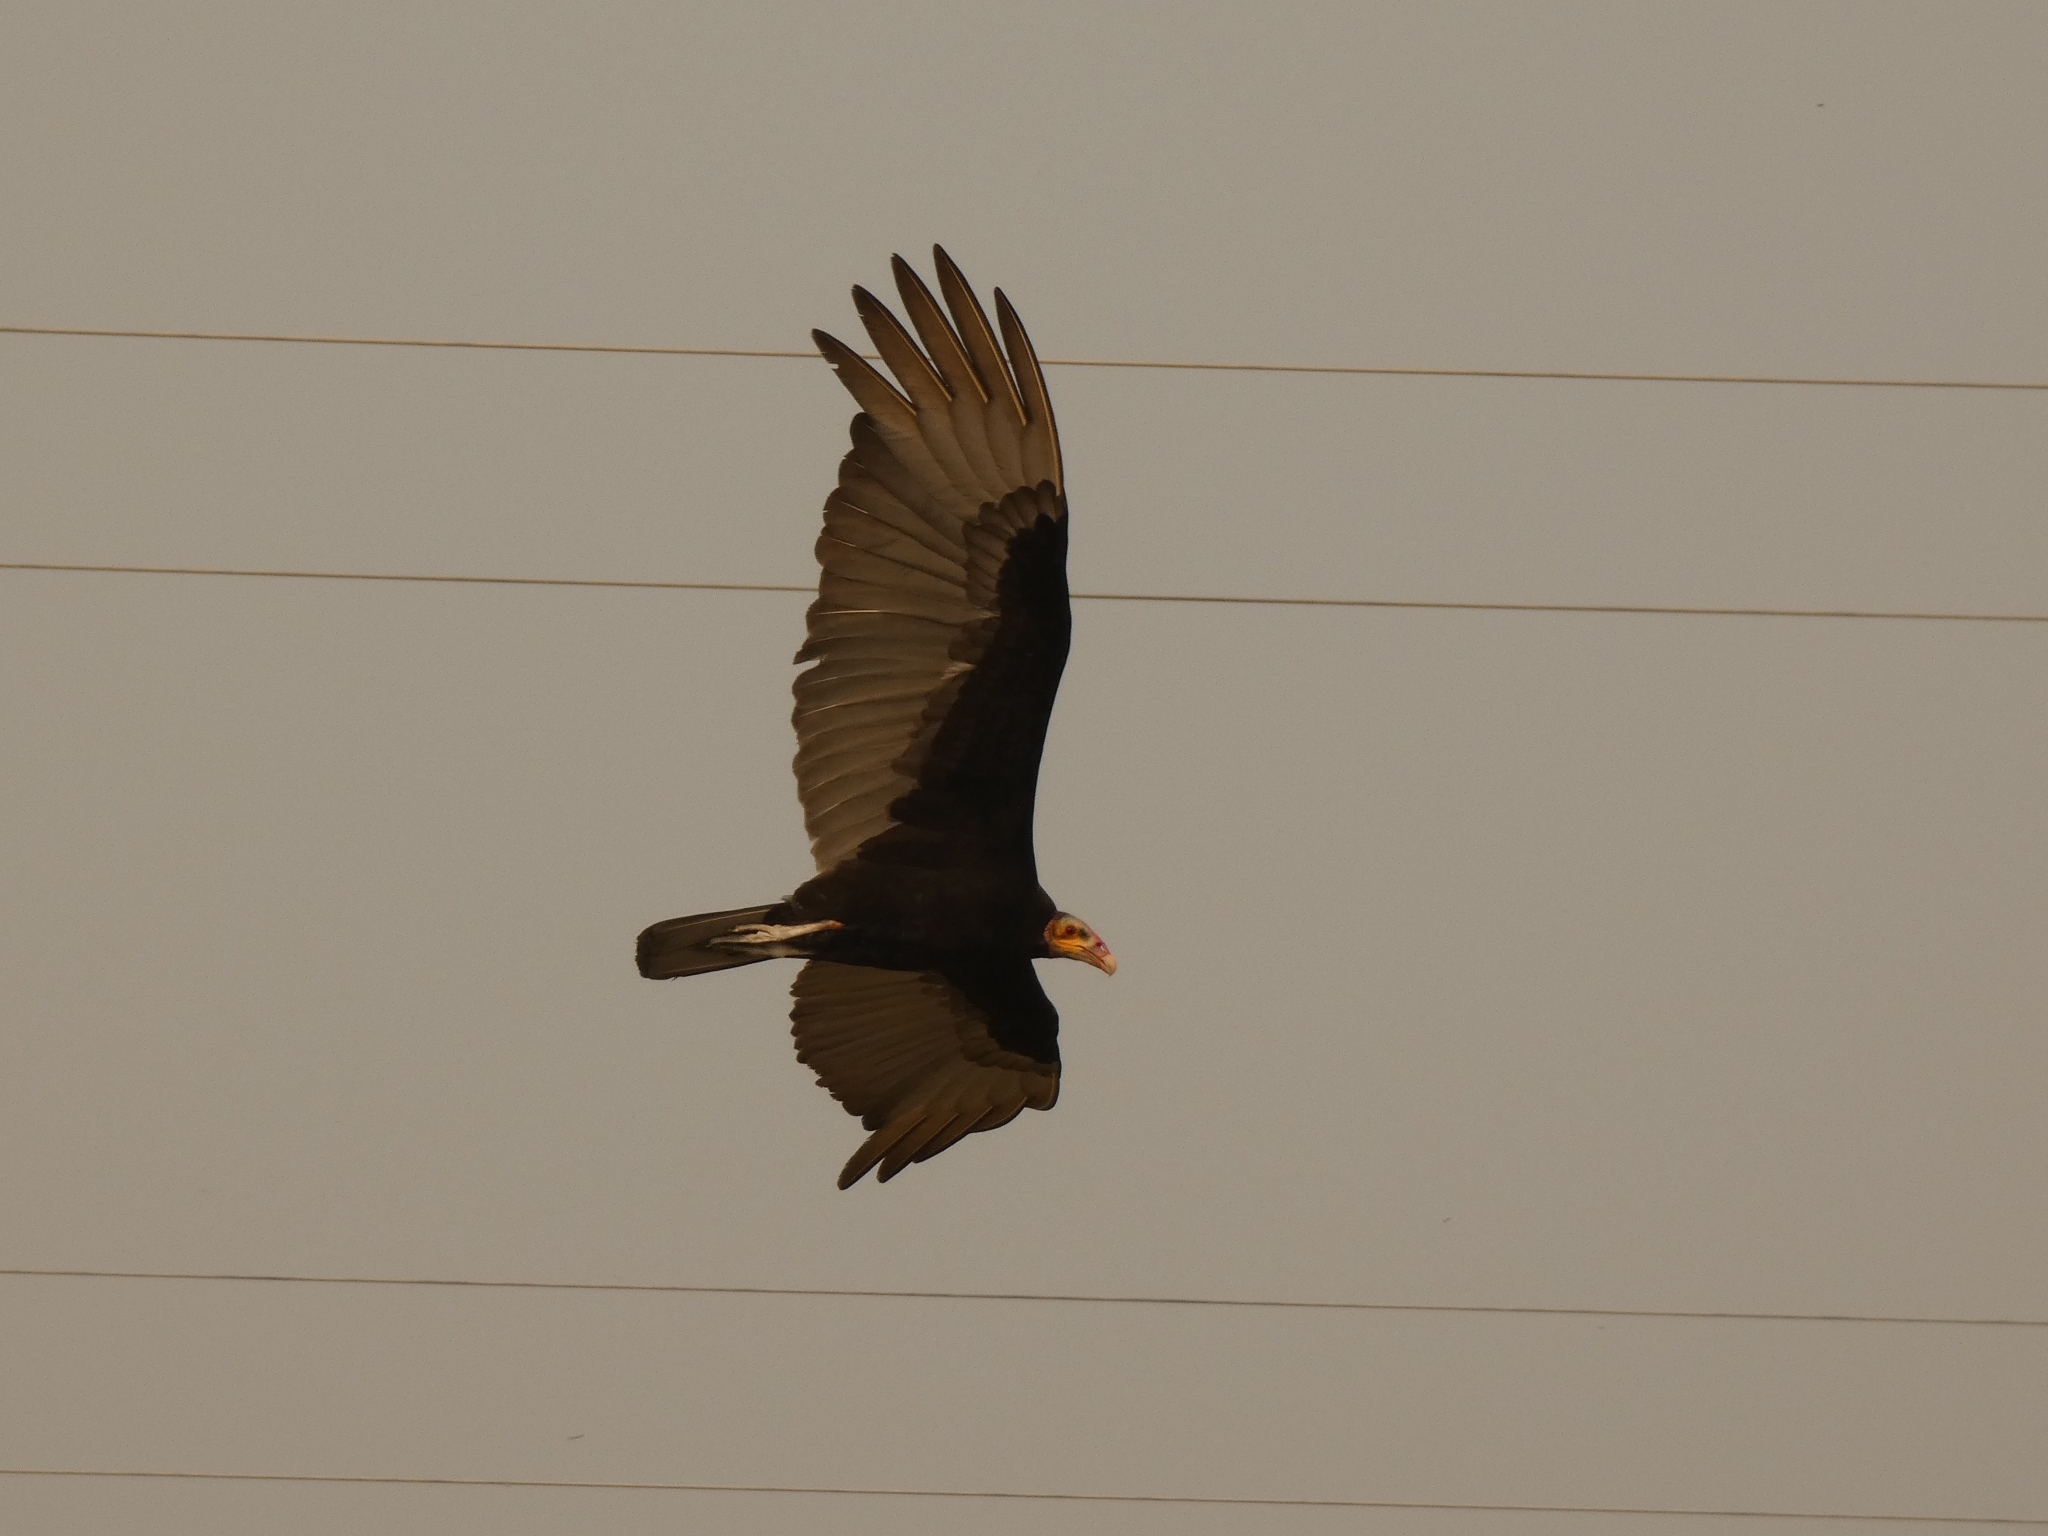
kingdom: Animalia
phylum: Chordata
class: Aves
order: Accipitriformes
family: Cathartidae
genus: Cathartes
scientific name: Cathartes burrovianus
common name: Lesser yellow-headed vulture
